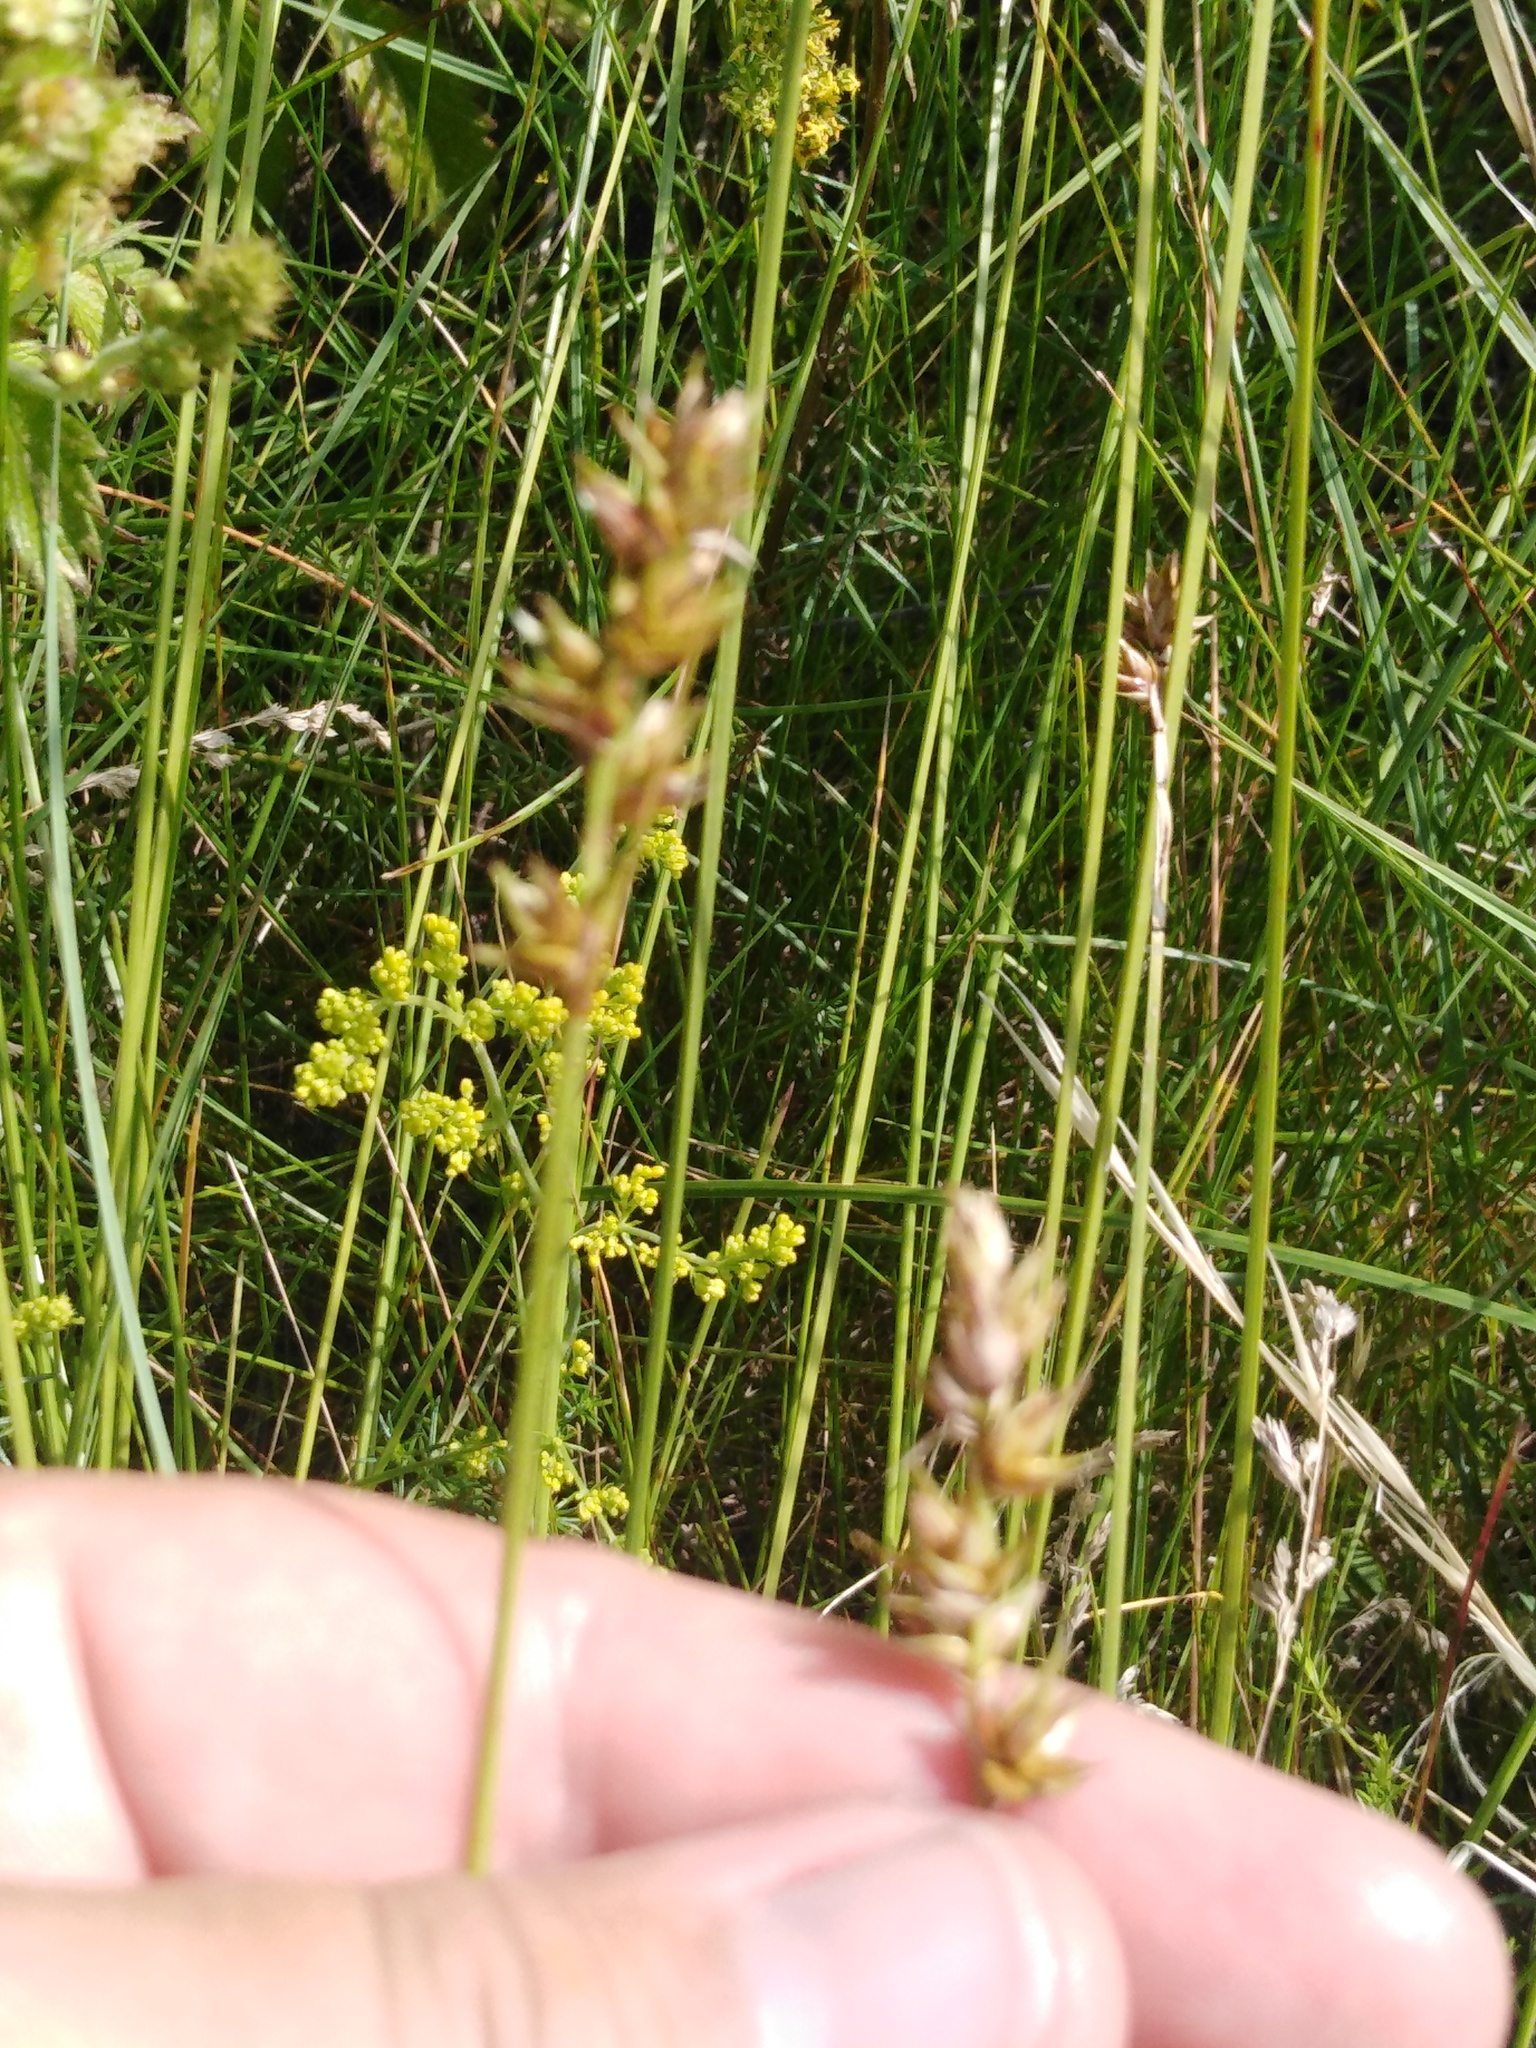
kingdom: Plantae
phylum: Tracheophyta
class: Liliopsida
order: Poales
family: Cyperaceae
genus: Carex
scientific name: Carex spicata
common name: Spiked sedge
